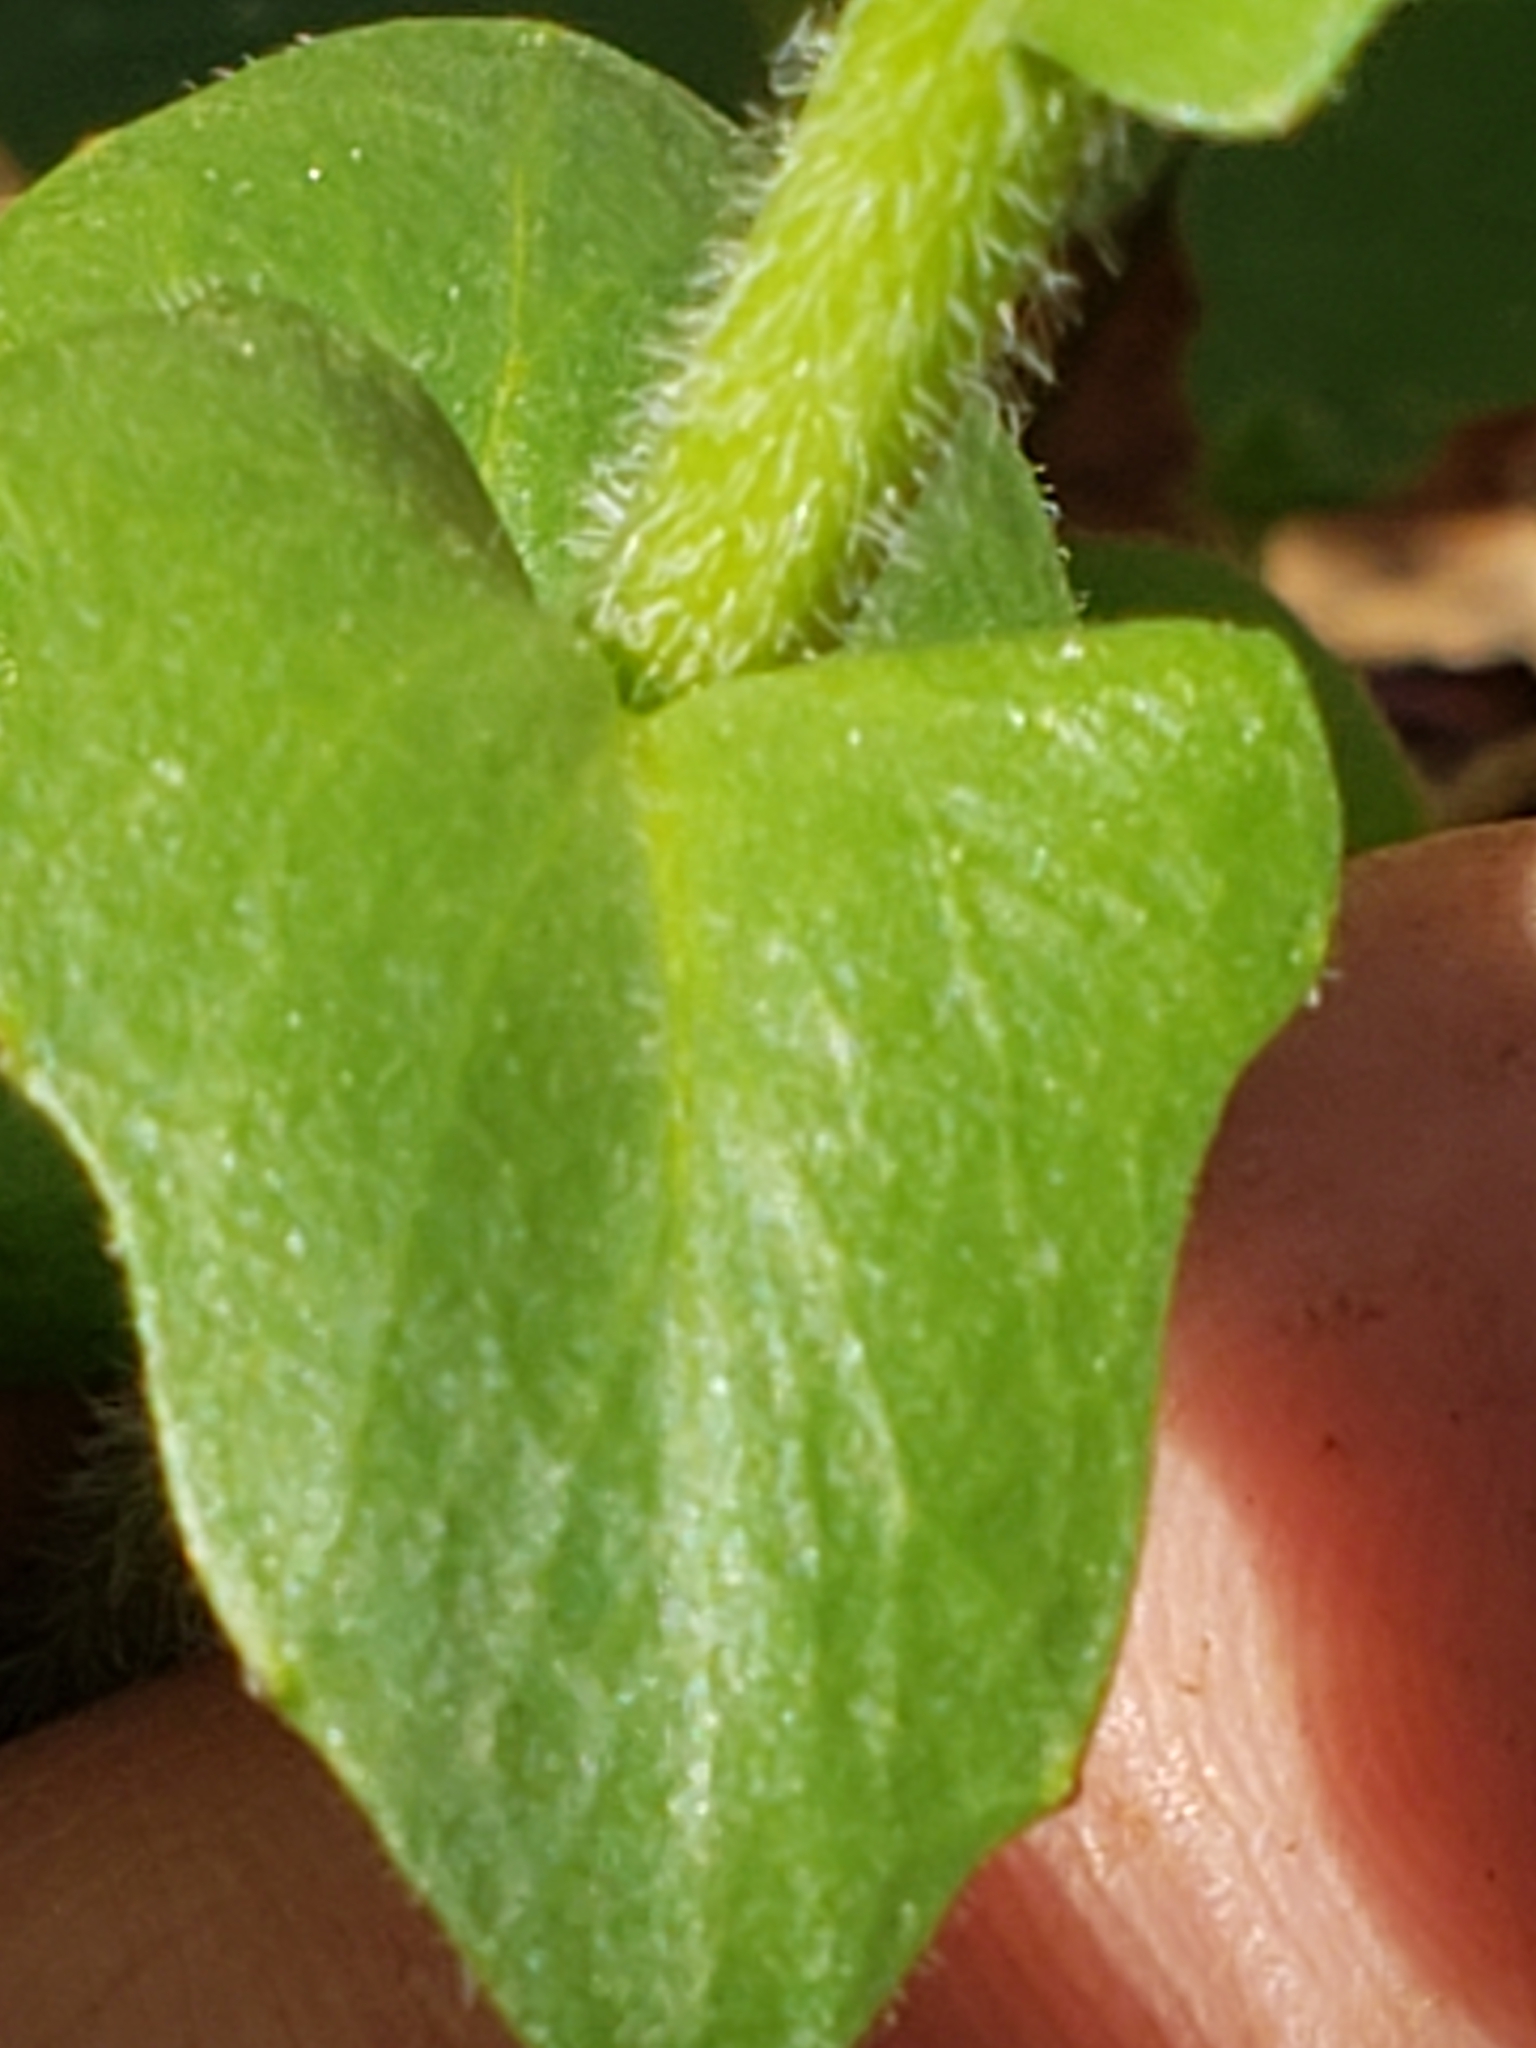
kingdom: Plantae
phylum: Tracheophyta
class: Magnoliopsida
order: Brassicales
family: Brassicaceae
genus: Cardamine
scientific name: Cardamine douglassii
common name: Purple cress
